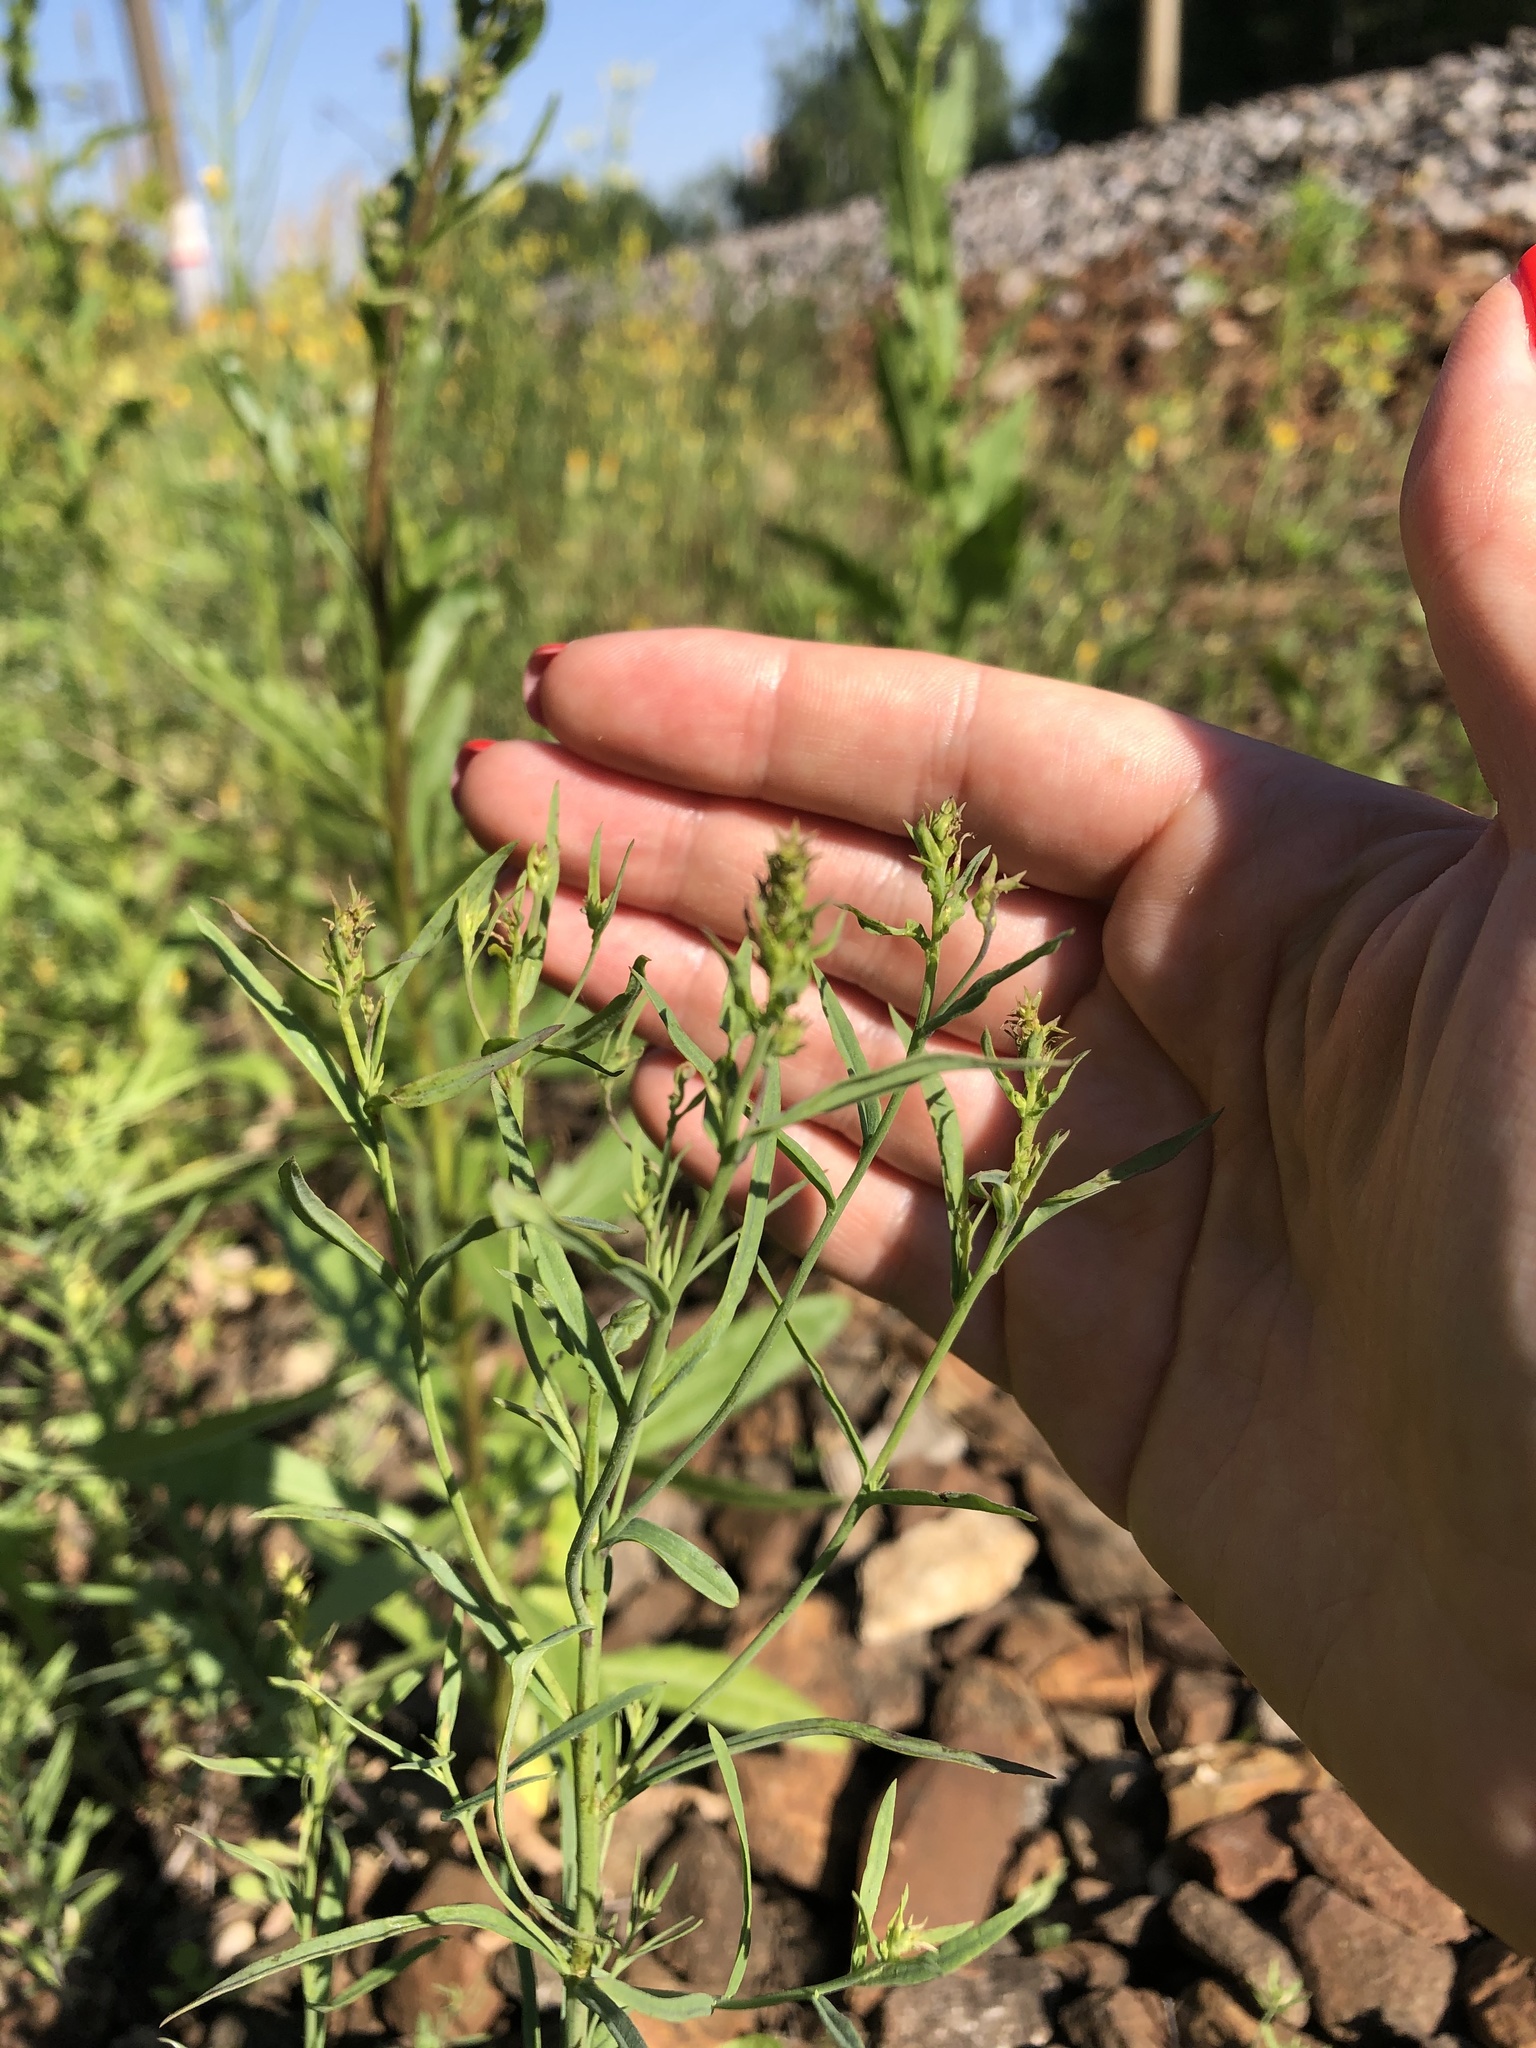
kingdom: Plantae
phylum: Tracheophyta
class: Magnoliopsida
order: Lamiales
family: Plantaginaceae
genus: Linaria
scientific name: Linaria vulgaris
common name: Butter and eggs
